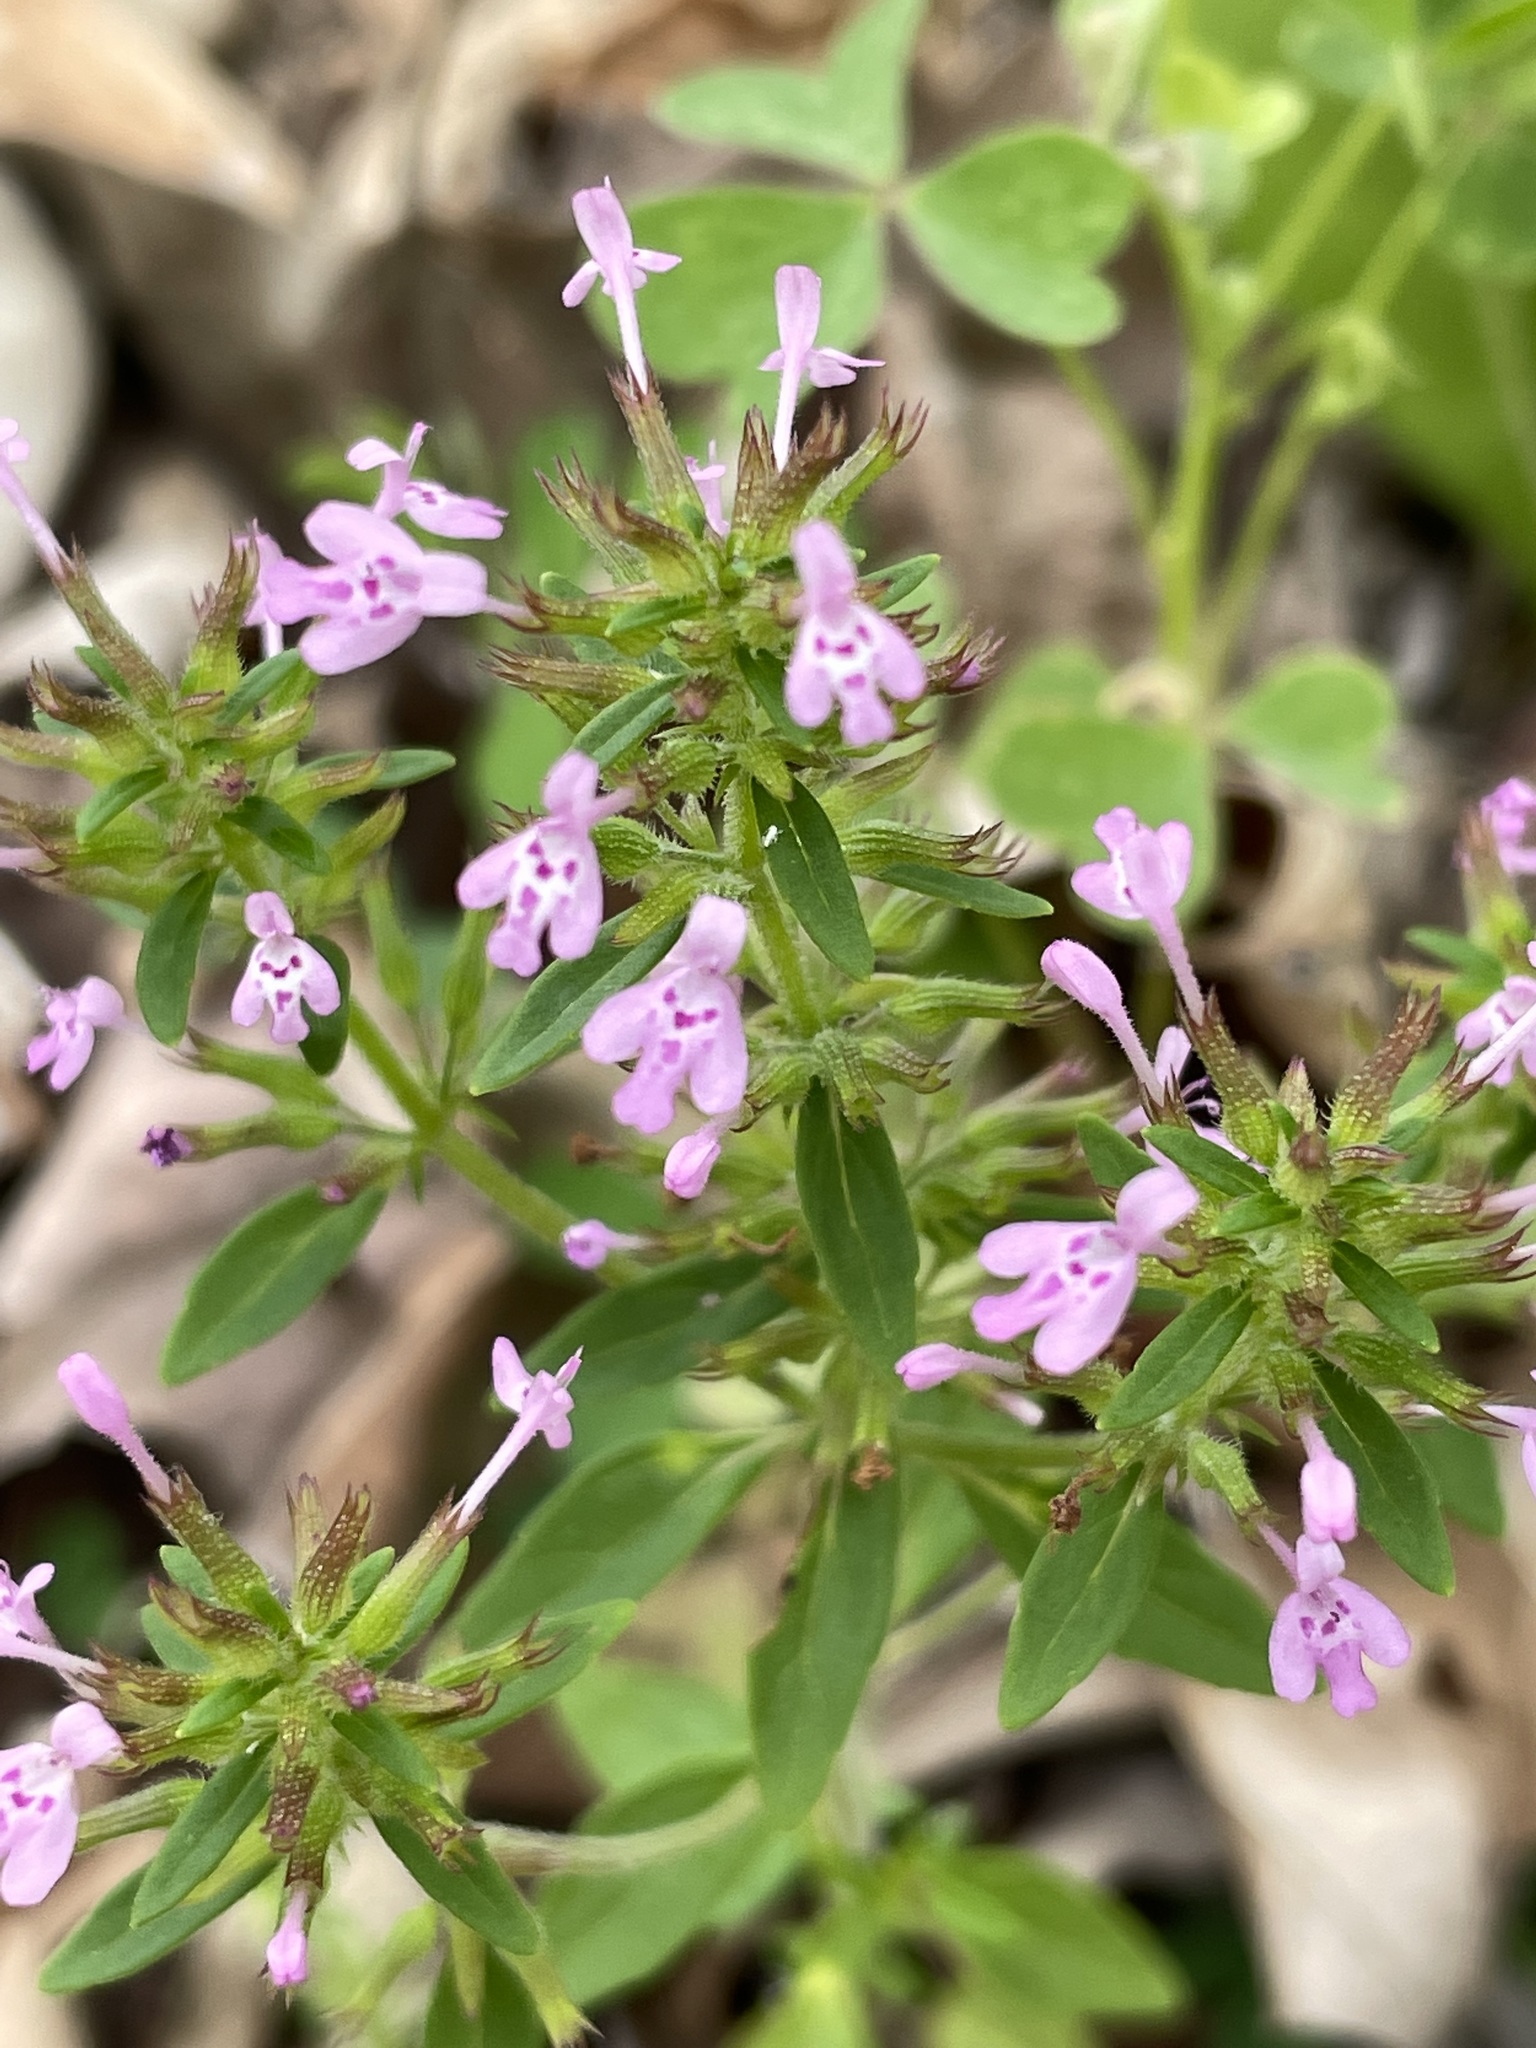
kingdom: Plantae
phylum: Tracheophyta
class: Magnoliopsida
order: Lamiales
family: Lamiaceae
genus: Hedeoma
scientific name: Hedeoma acinoides
